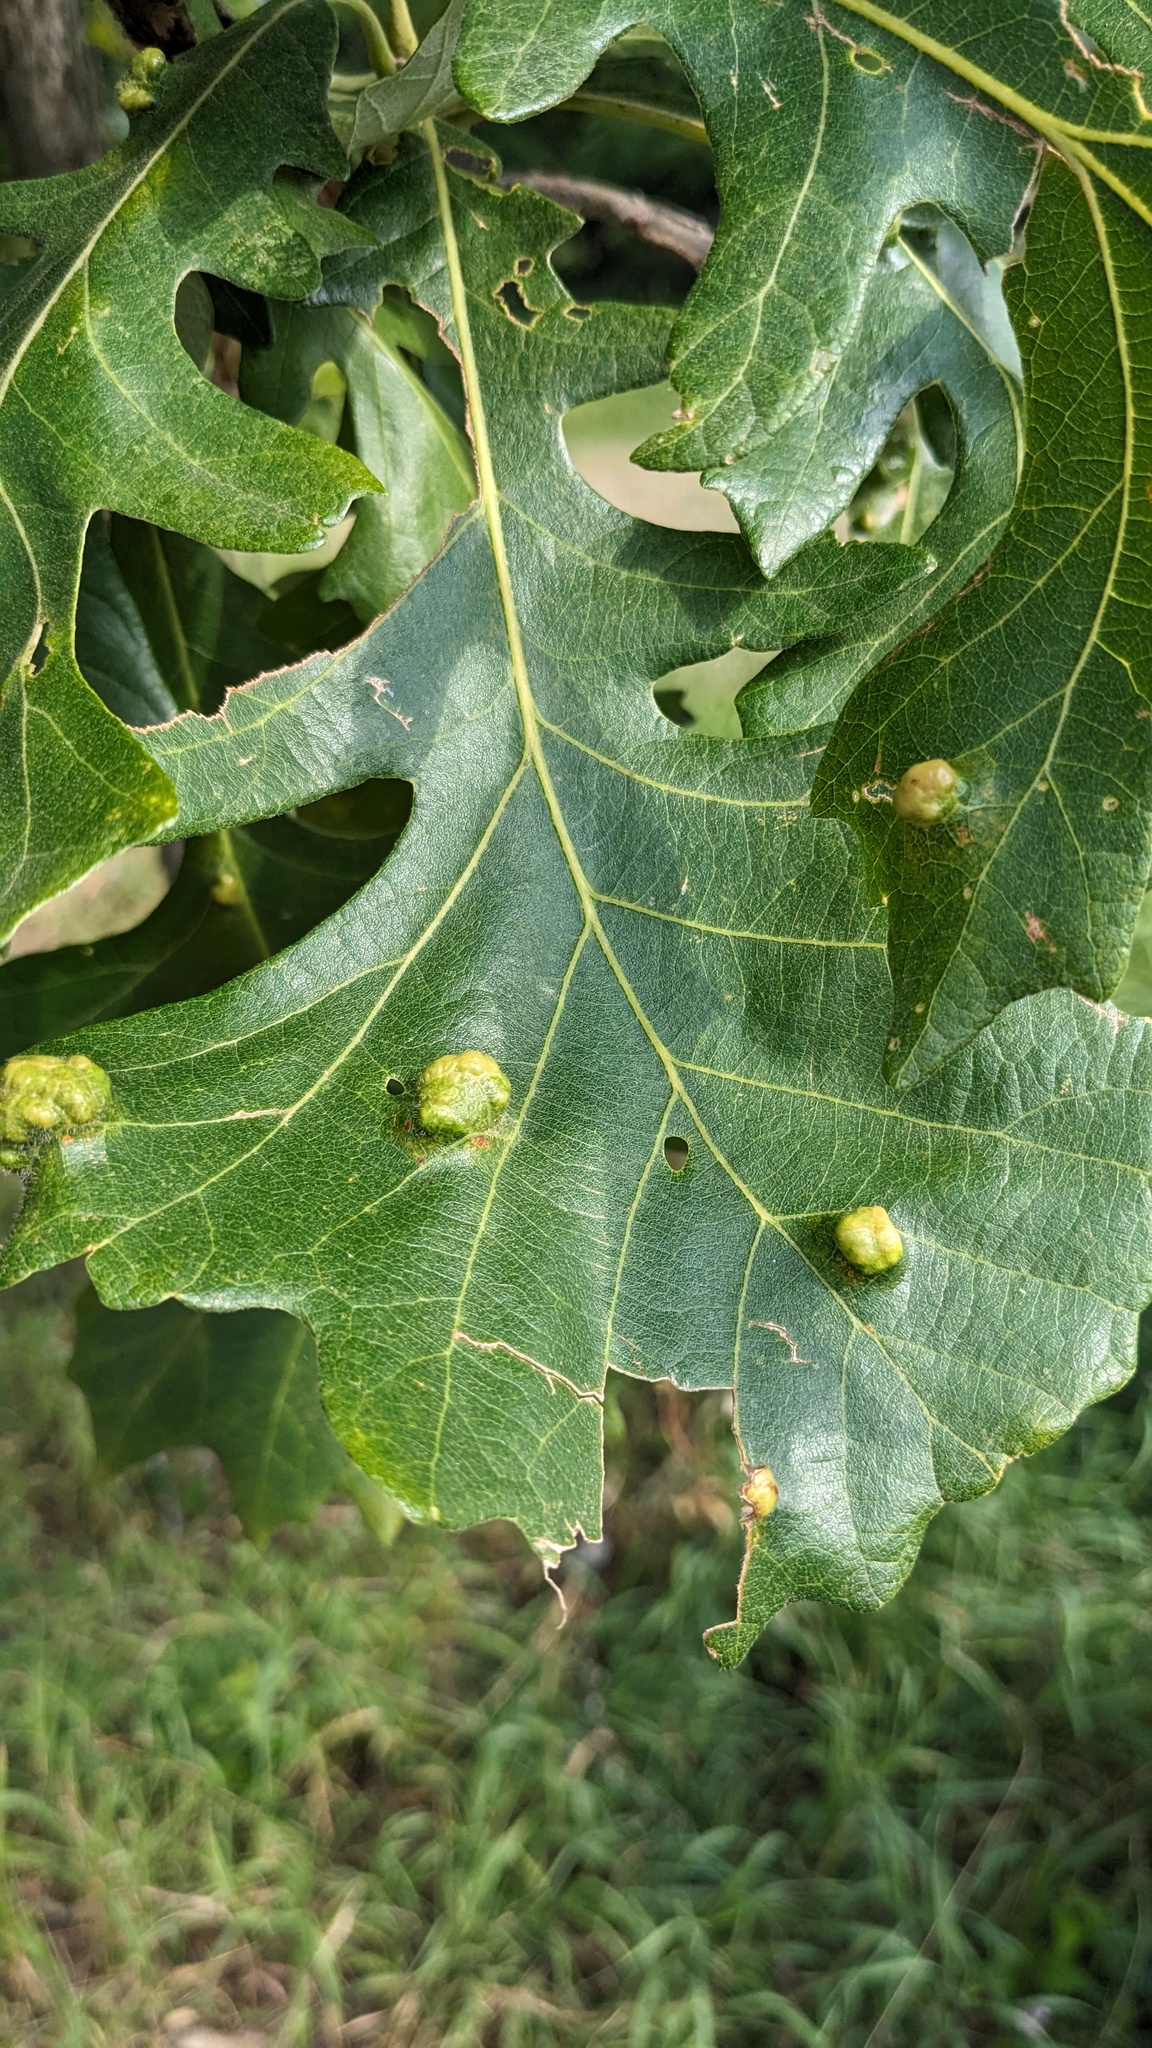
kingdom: Animalia
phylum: Arthropoda
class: Arachnida
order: Trombidiformes
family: Eriophyidae
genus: Aceria
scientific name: Aceria quercina
